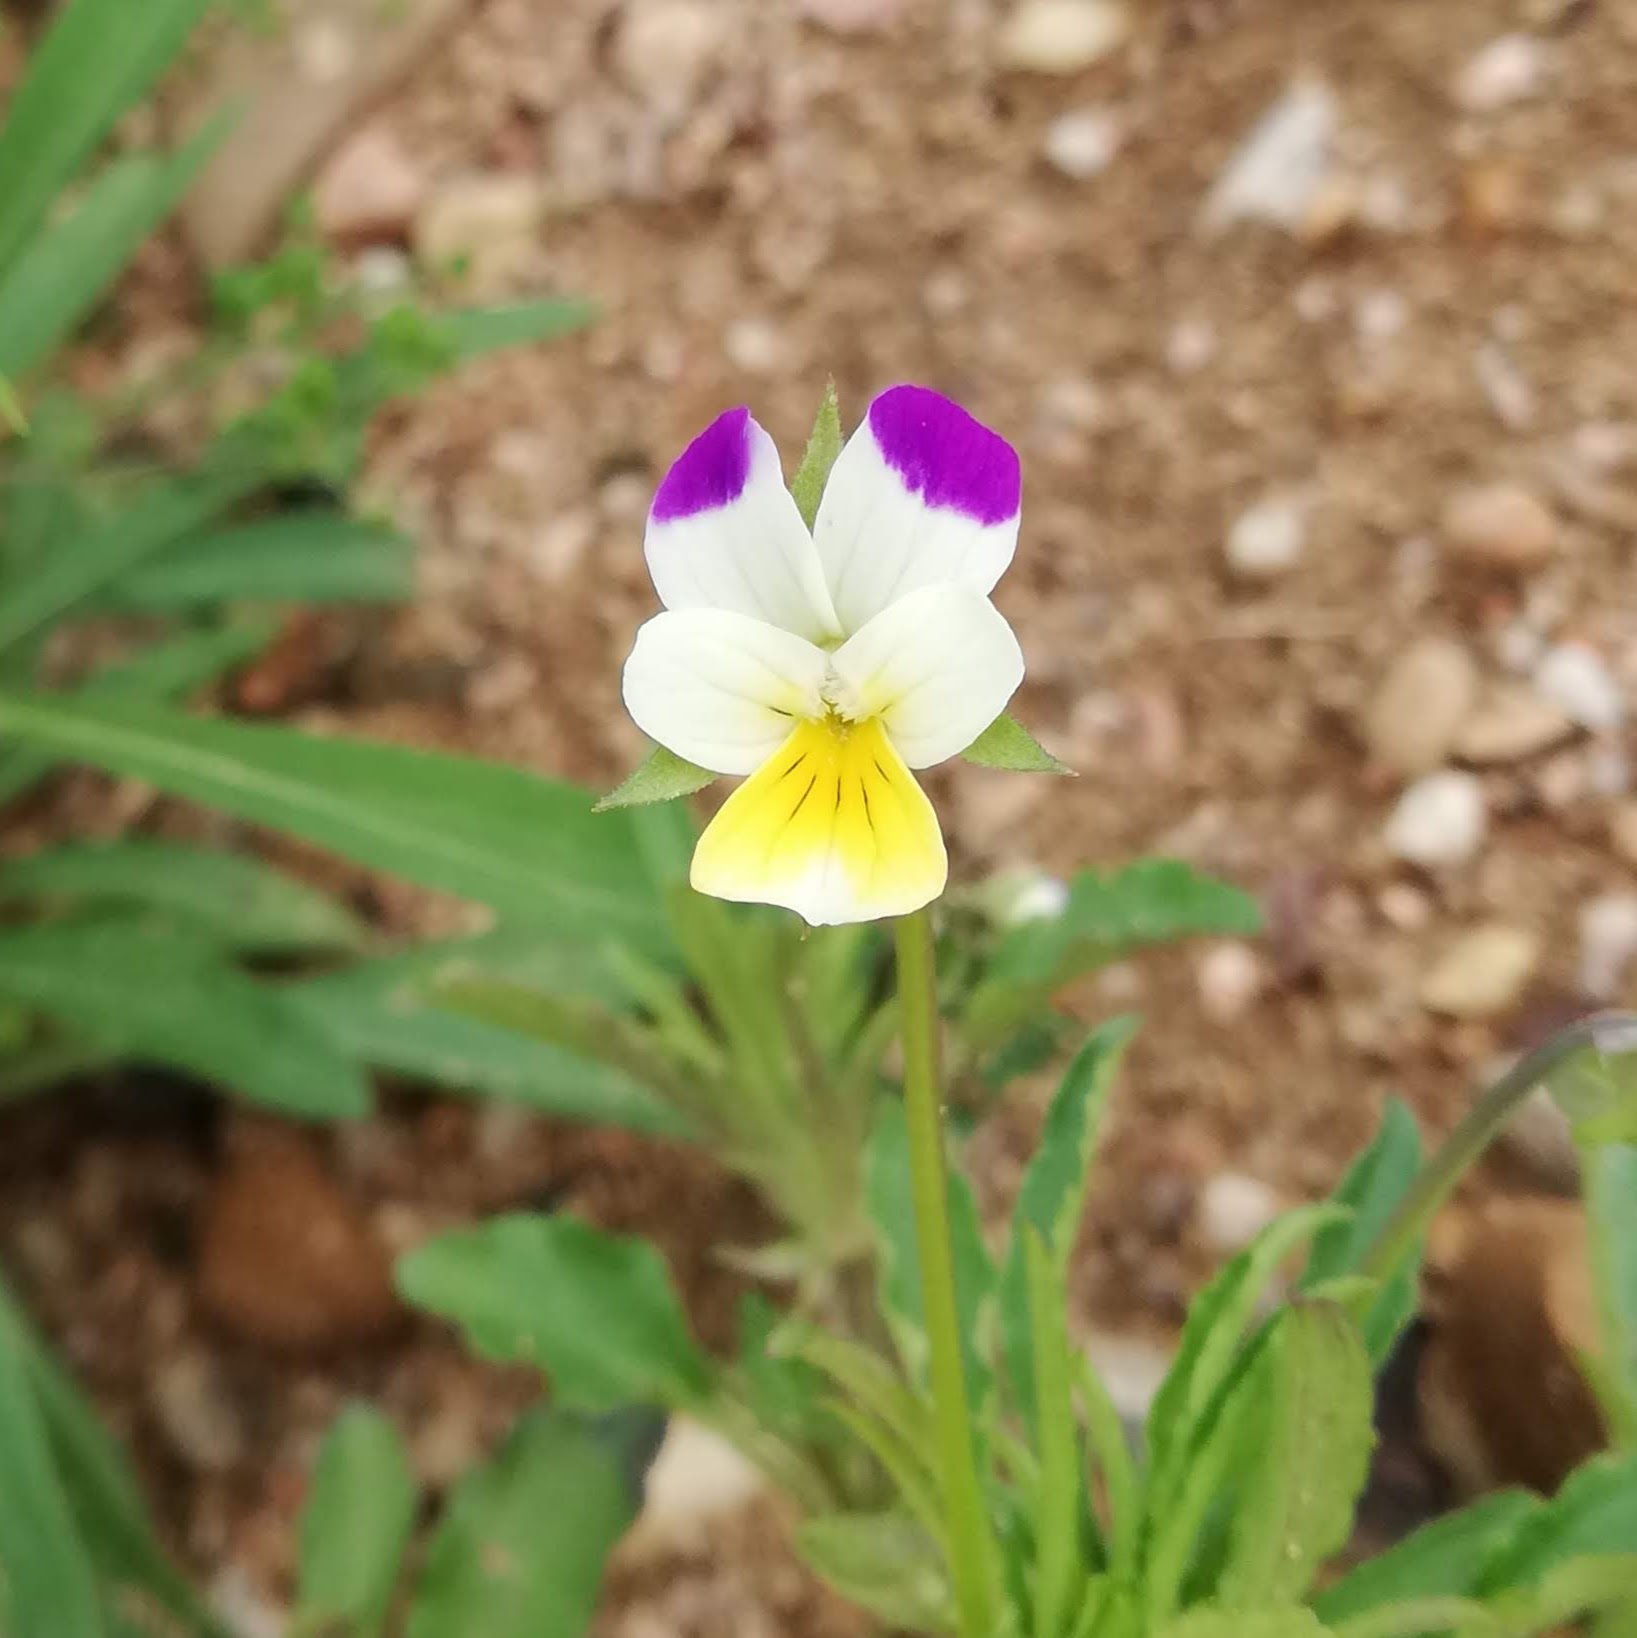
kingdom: Plantae
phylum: Tracheophyta
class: Magnoliopsida
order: Malpighiales
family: Violaceae
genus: Viola
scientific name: Viola arvensis
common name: Field pansy
